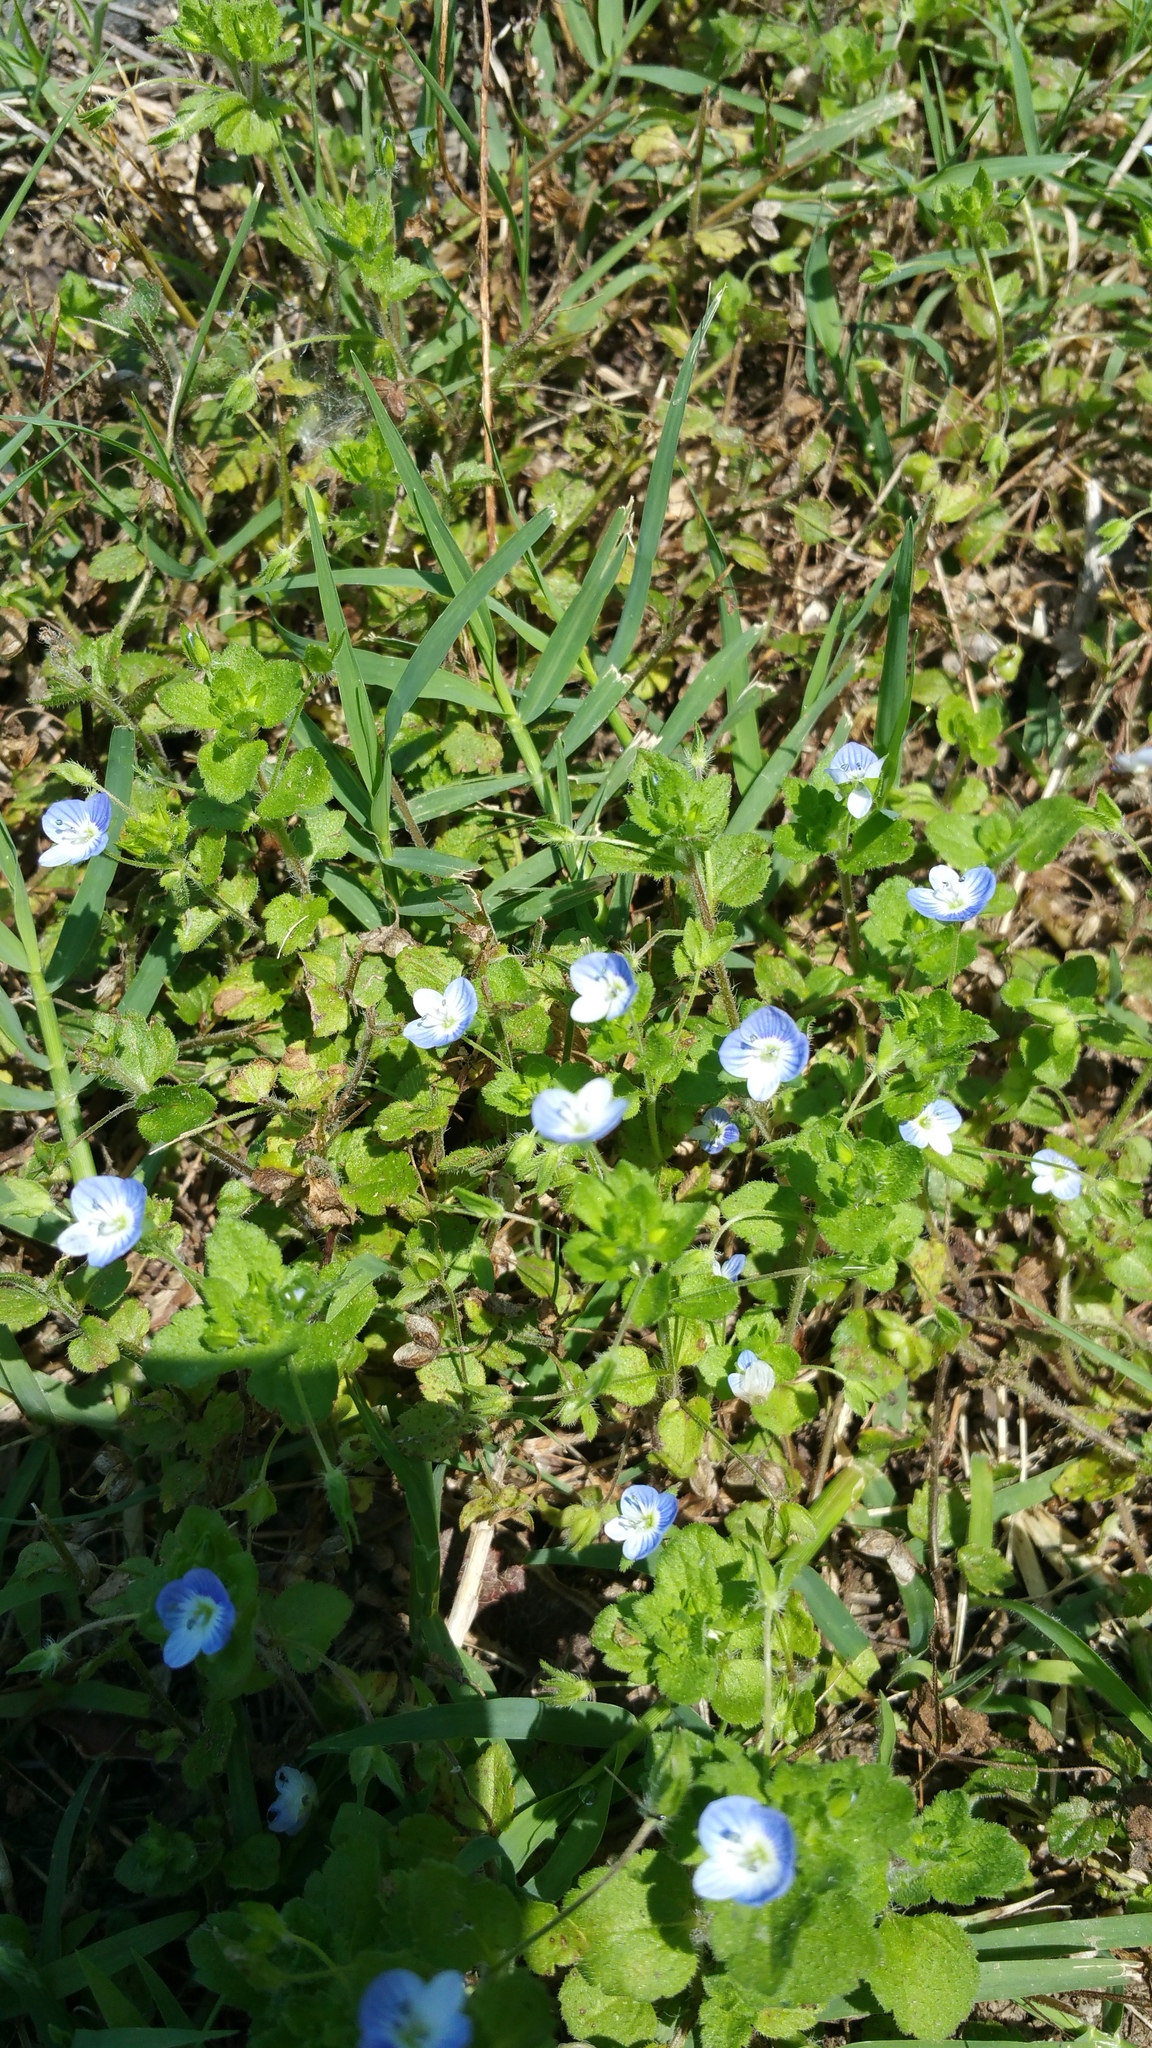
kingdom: Plantae
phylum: Tracheophyta
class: Magnoliopsida
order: Lamiales
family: Plantaginaceae
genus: Veronica
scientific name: Veronica persica
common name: Common field-speedwell
